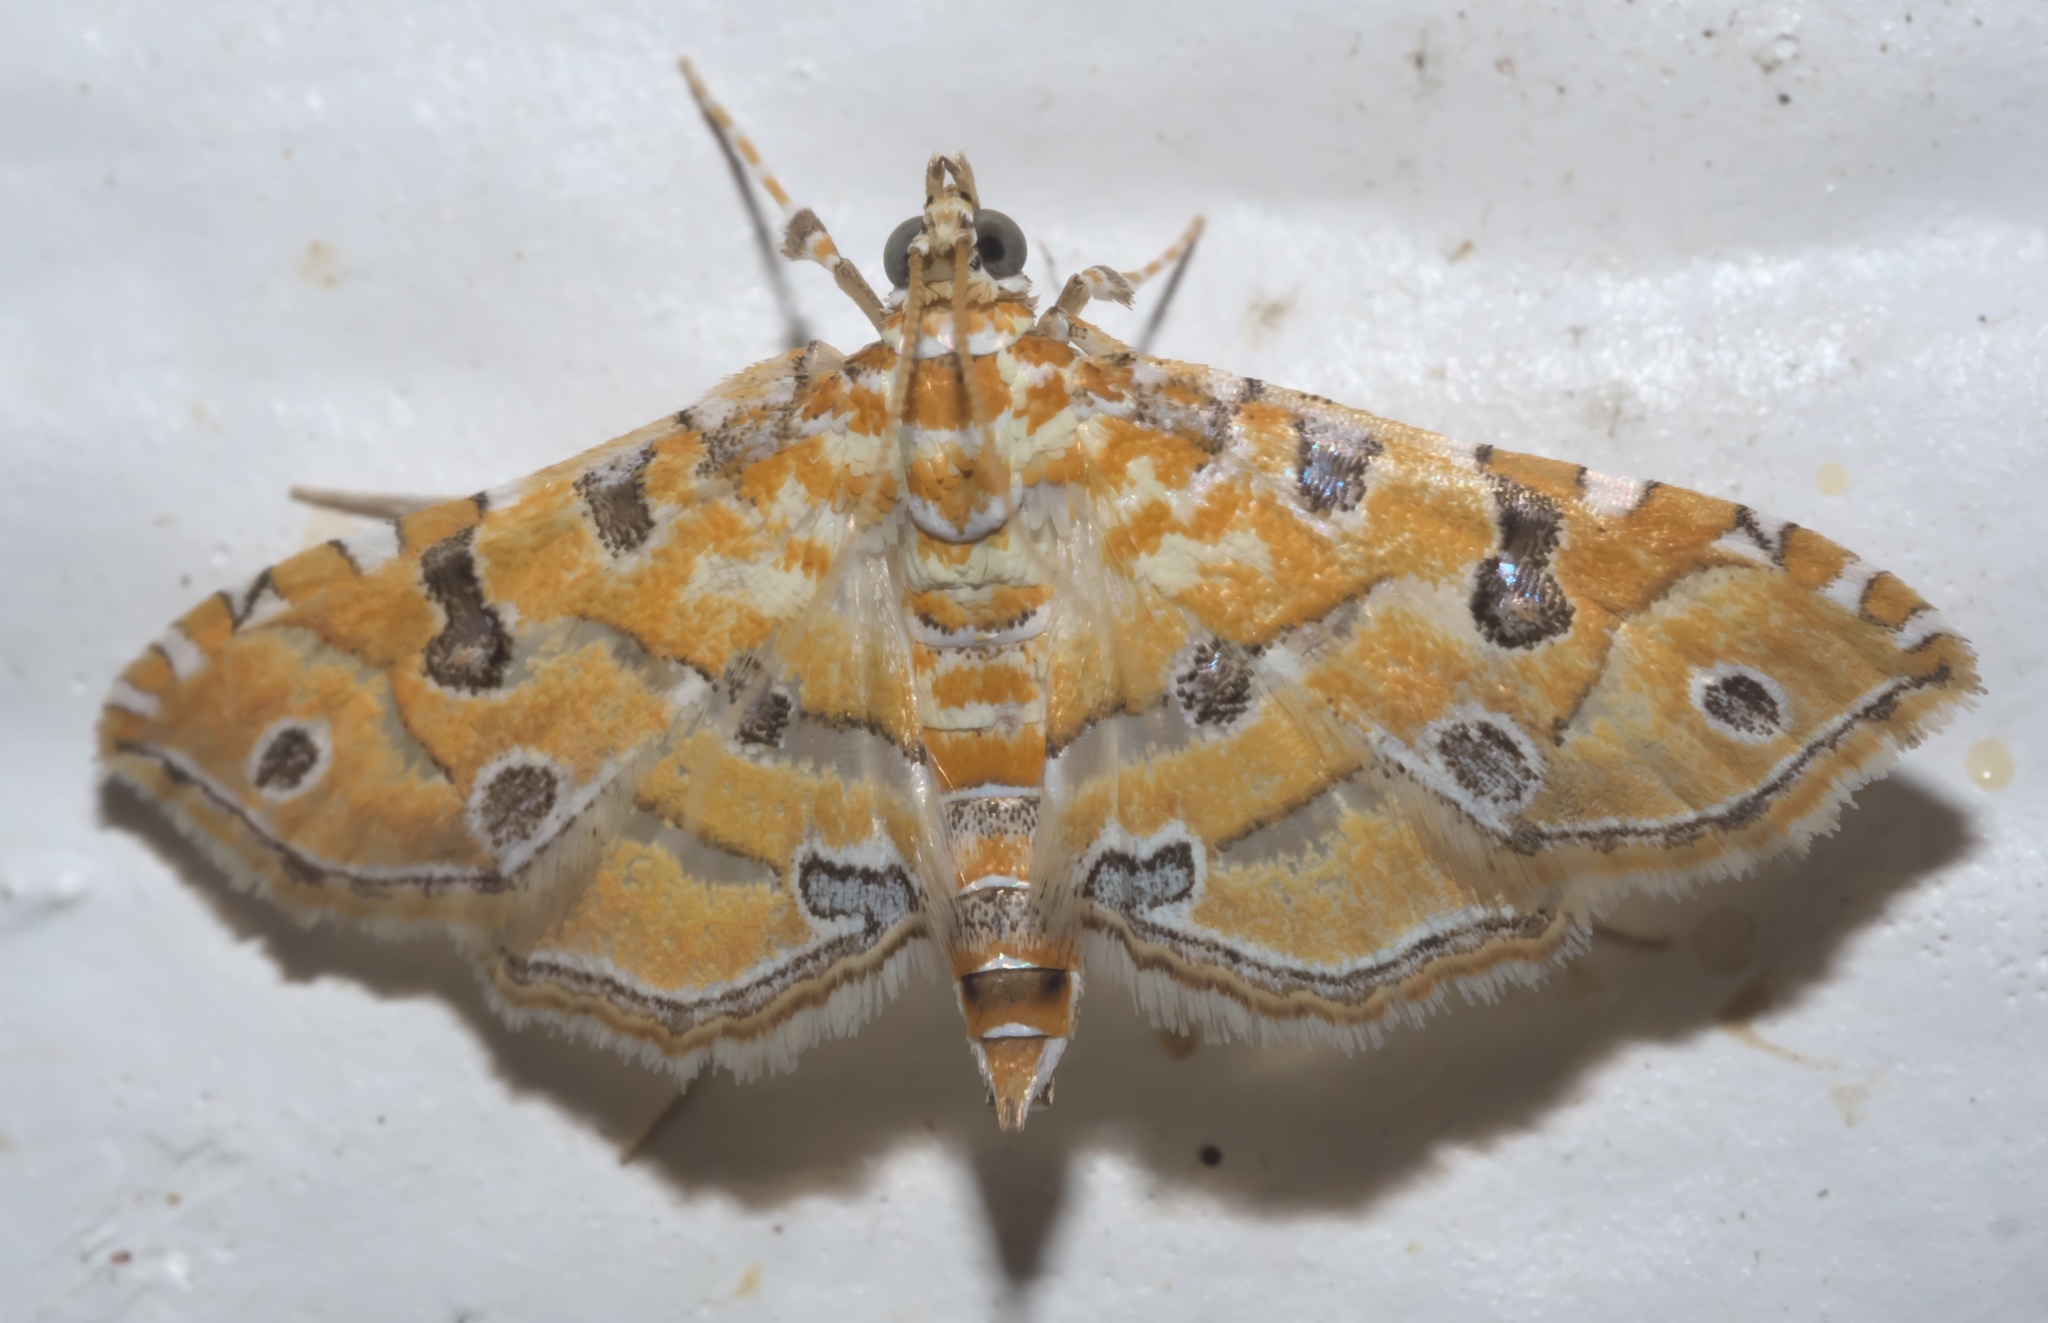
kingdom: Animalia
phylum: Arthropoda
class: Insecta
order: Lepidoptera
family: Crambidae
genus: Ommatospila
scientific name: Ommatospila narcaeusalis
